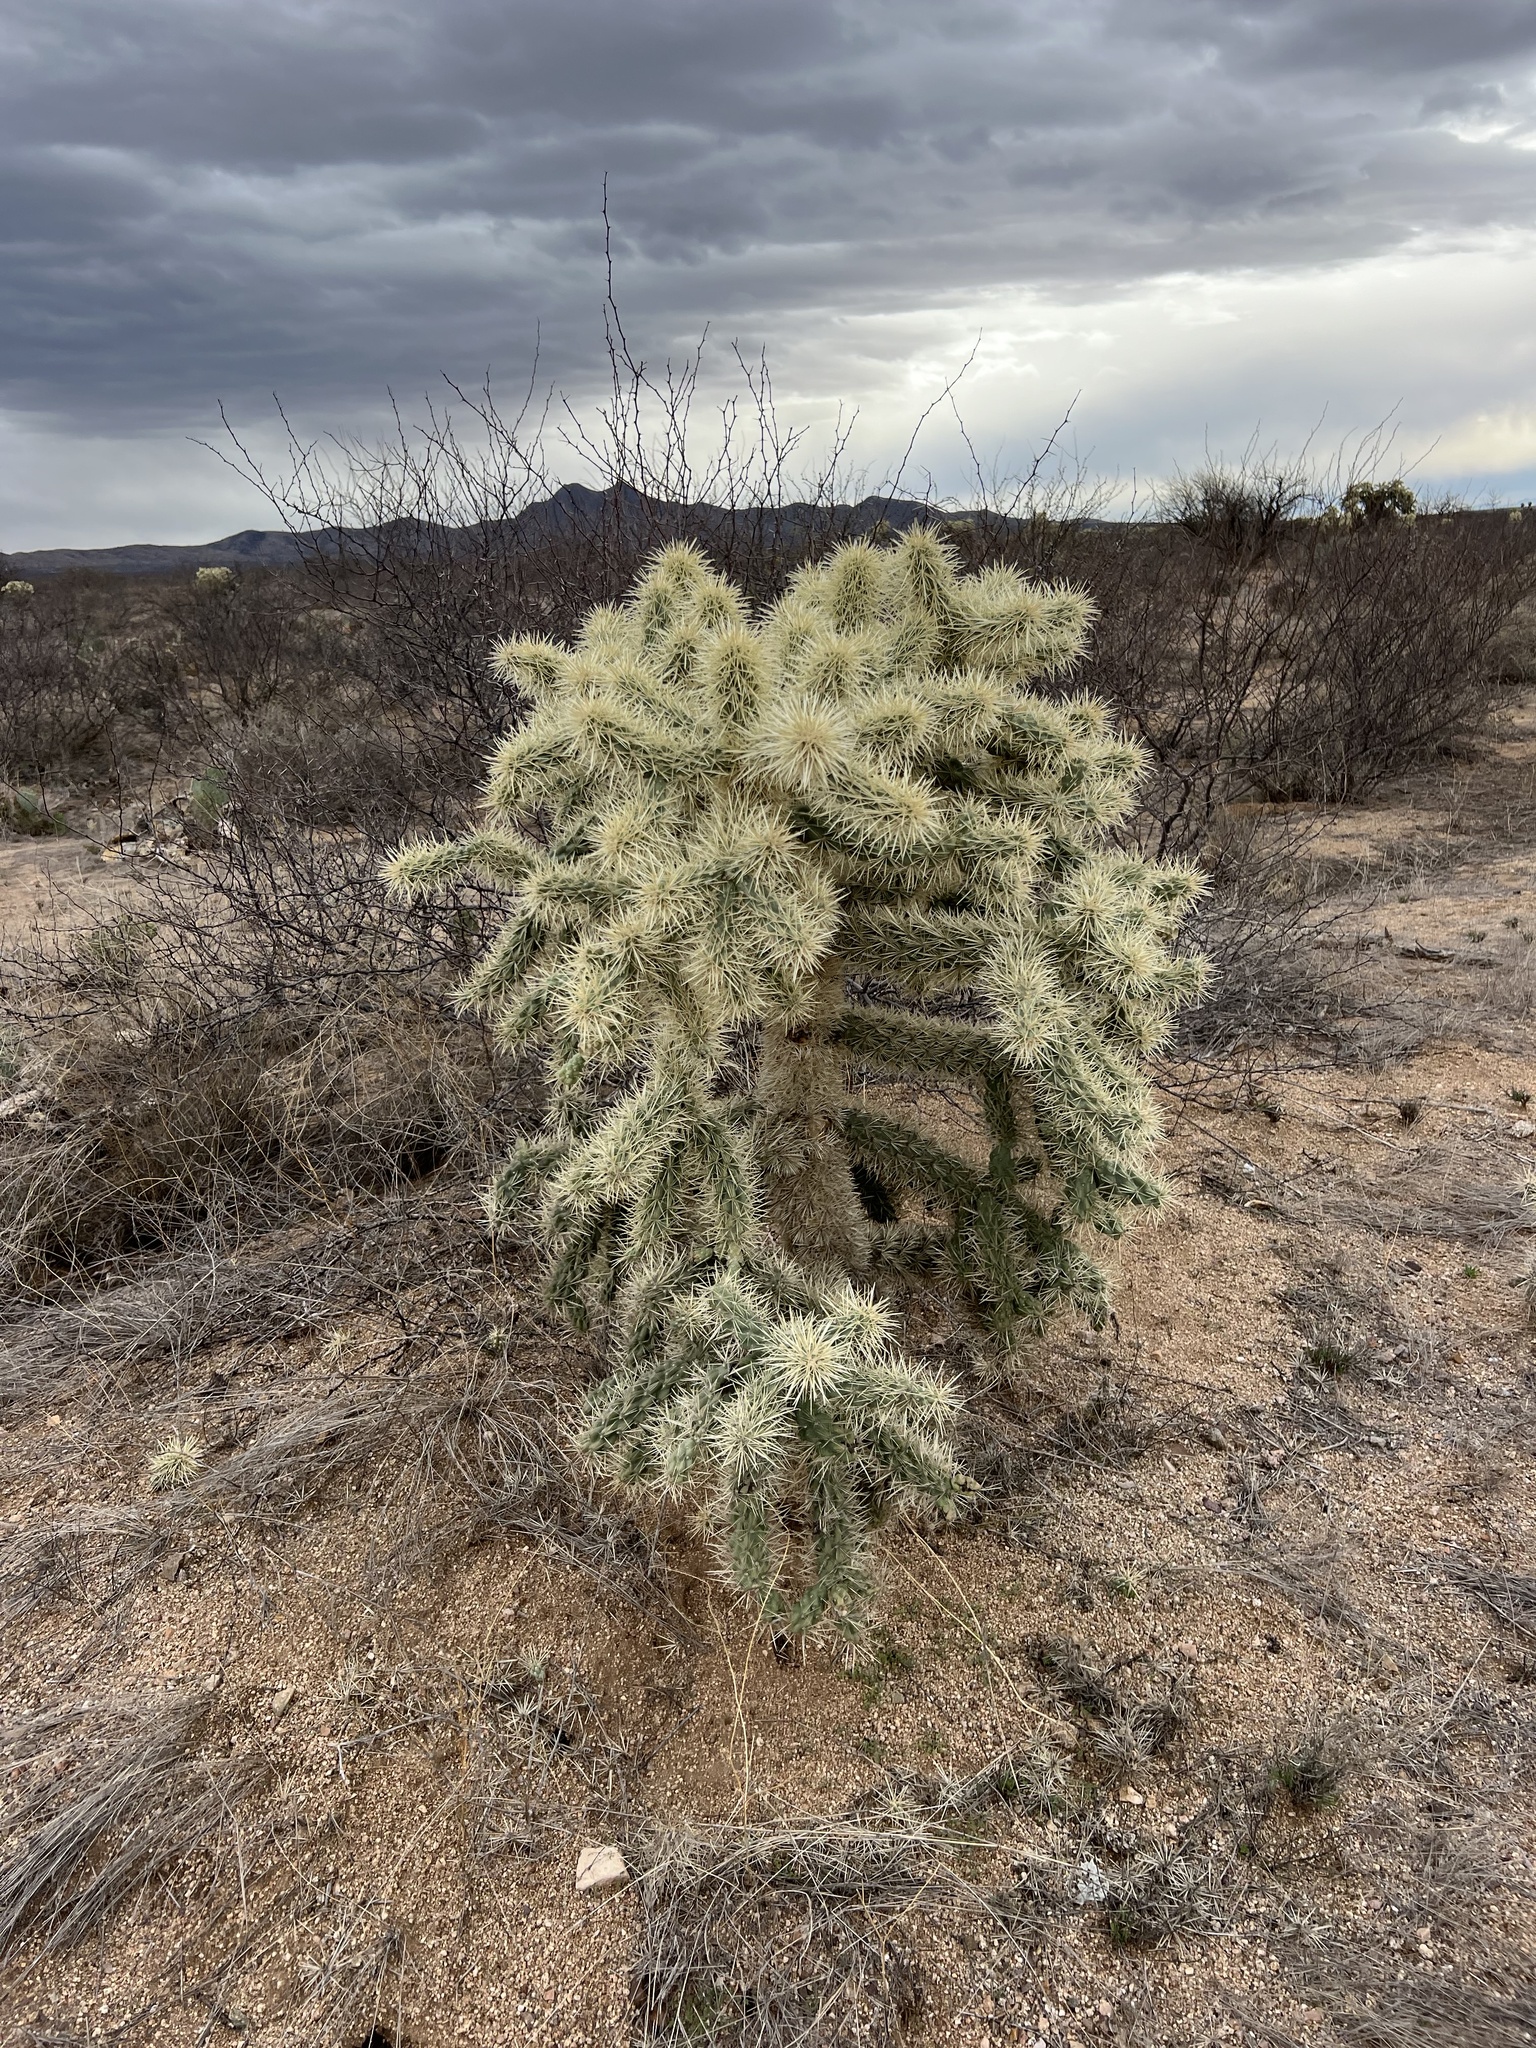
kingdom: Plantae
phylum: Tracheophyta
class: Magnoliopsida
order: Caryophyllales
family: Cactaceae
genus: Cylindropuntia
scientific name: Cylindropuntia fulgida
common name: Jumping cholla
